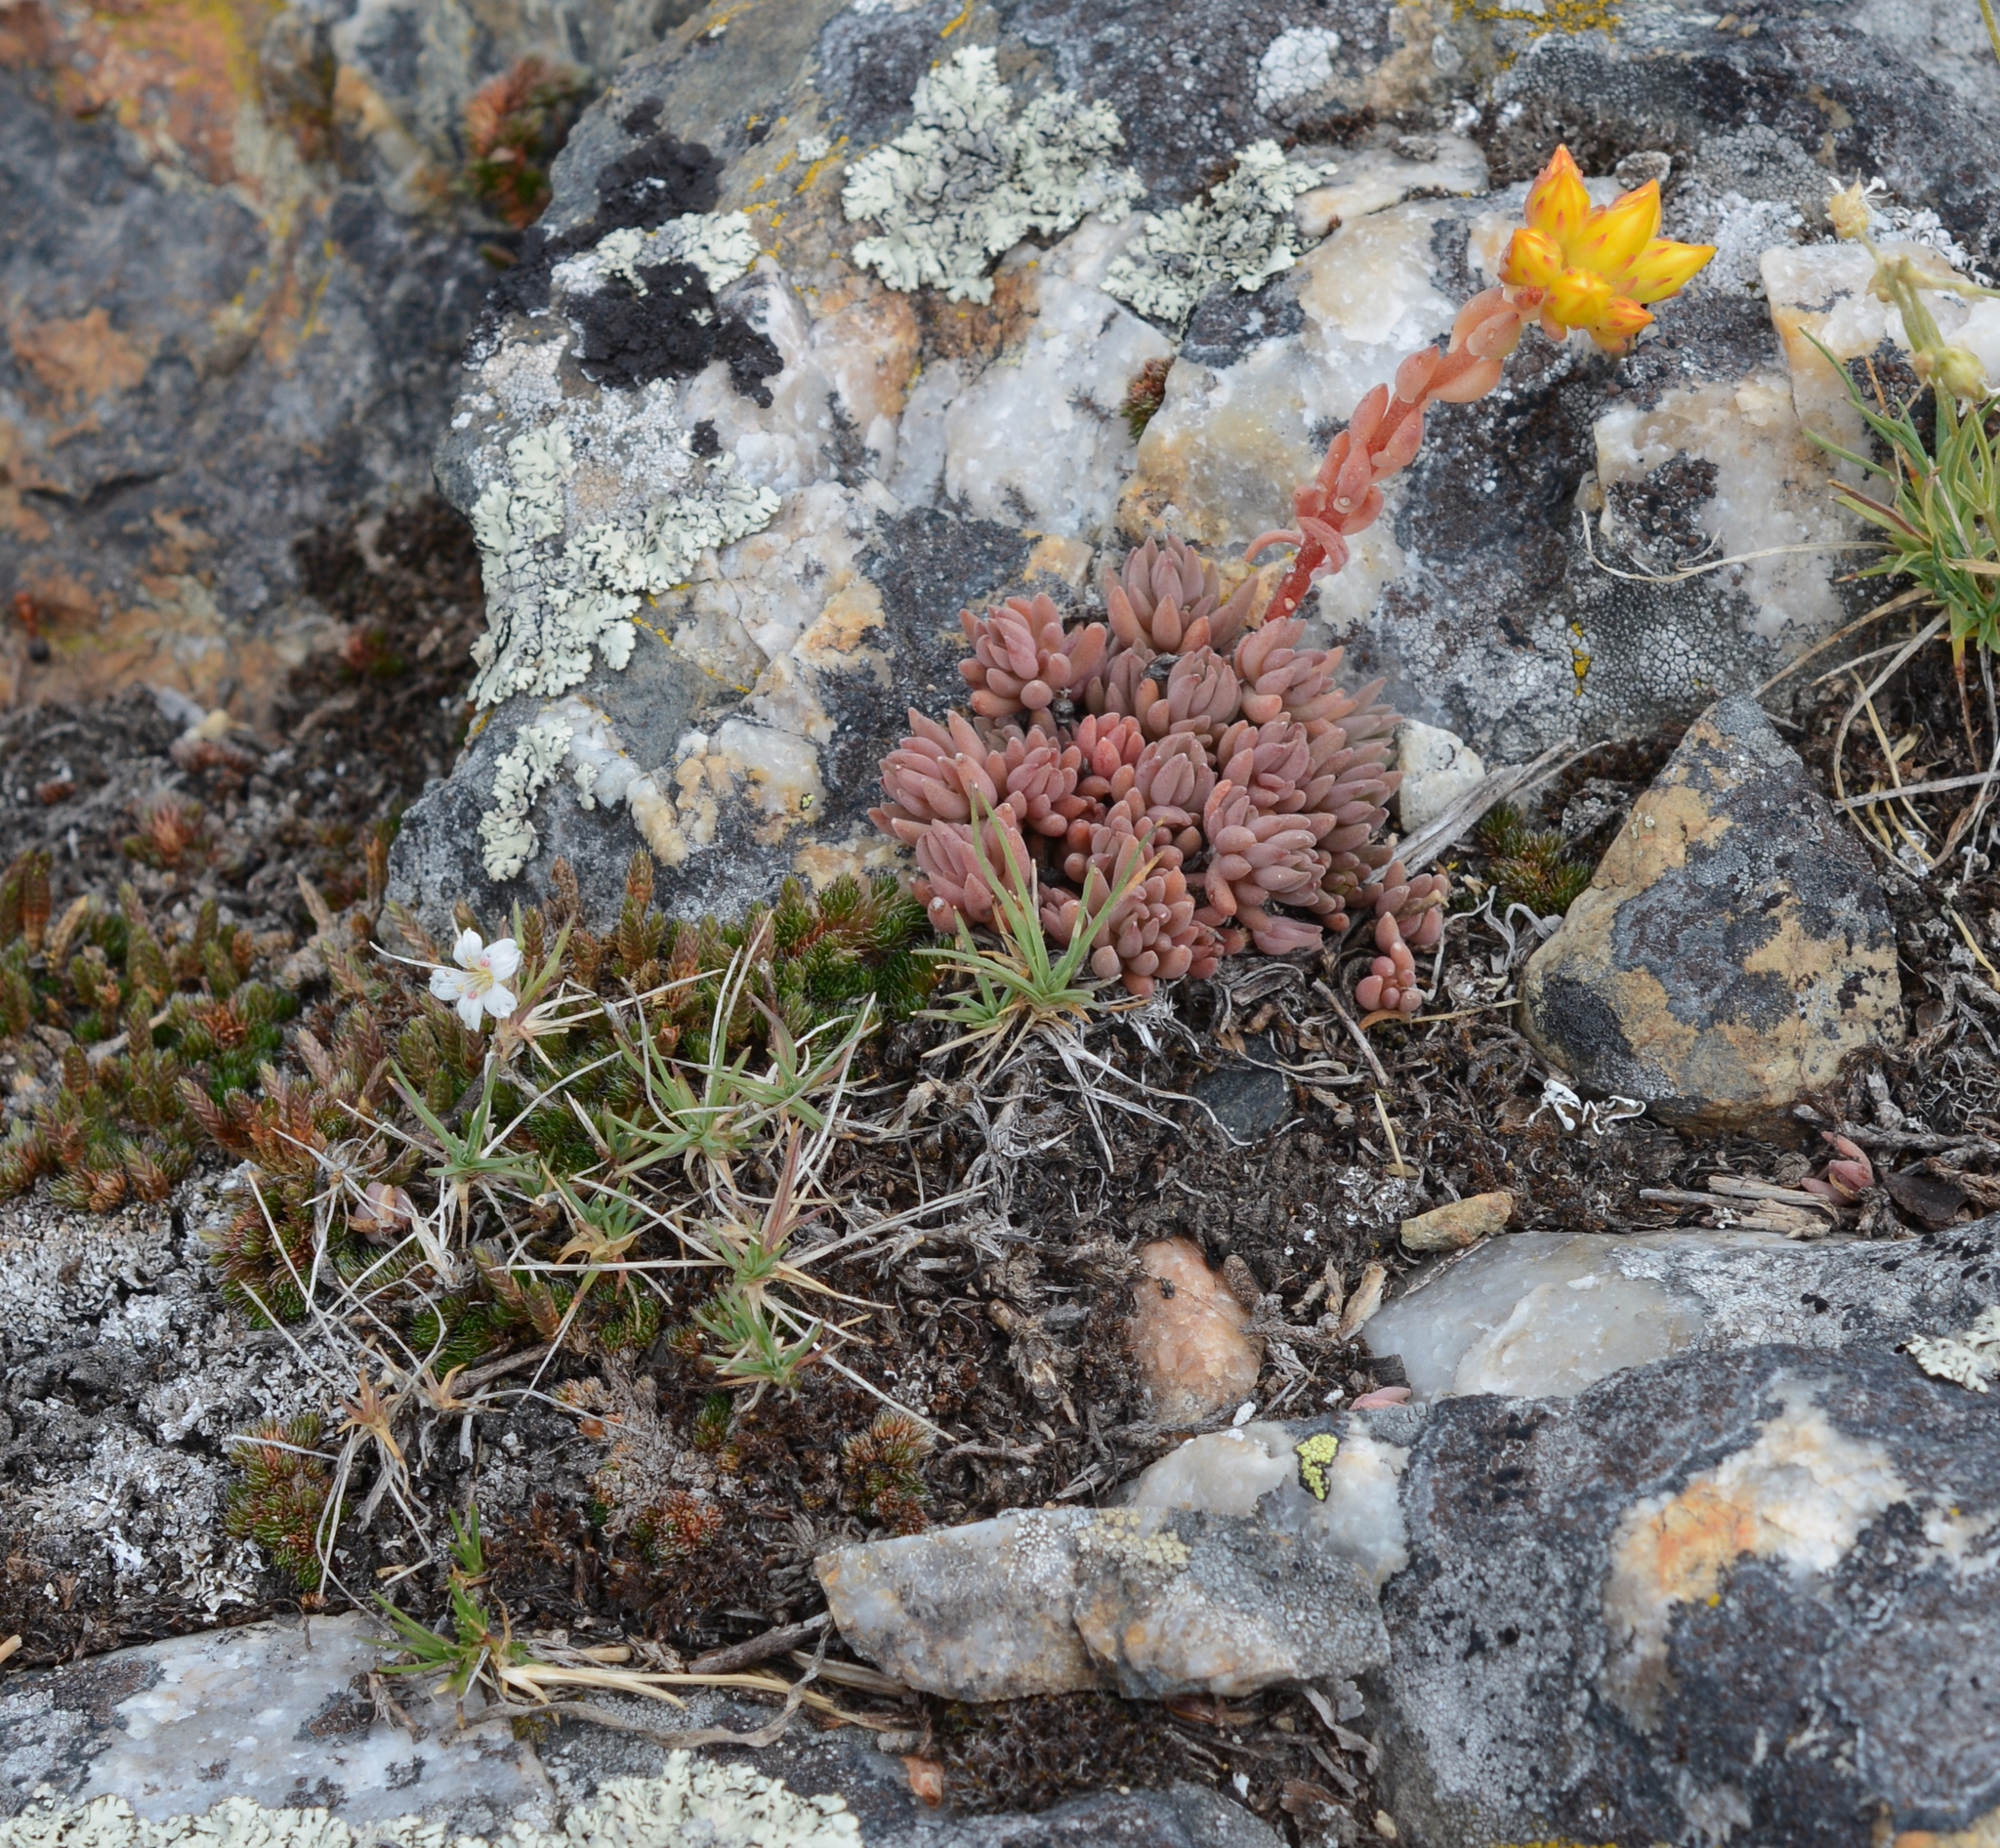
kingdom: Plantae
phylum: Tracheophyta
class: Magnoliopsida
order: Saxifragales
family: Crassulaceae
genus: Sedum
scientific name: Sedum lanceolatum
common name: Common stonecrop
